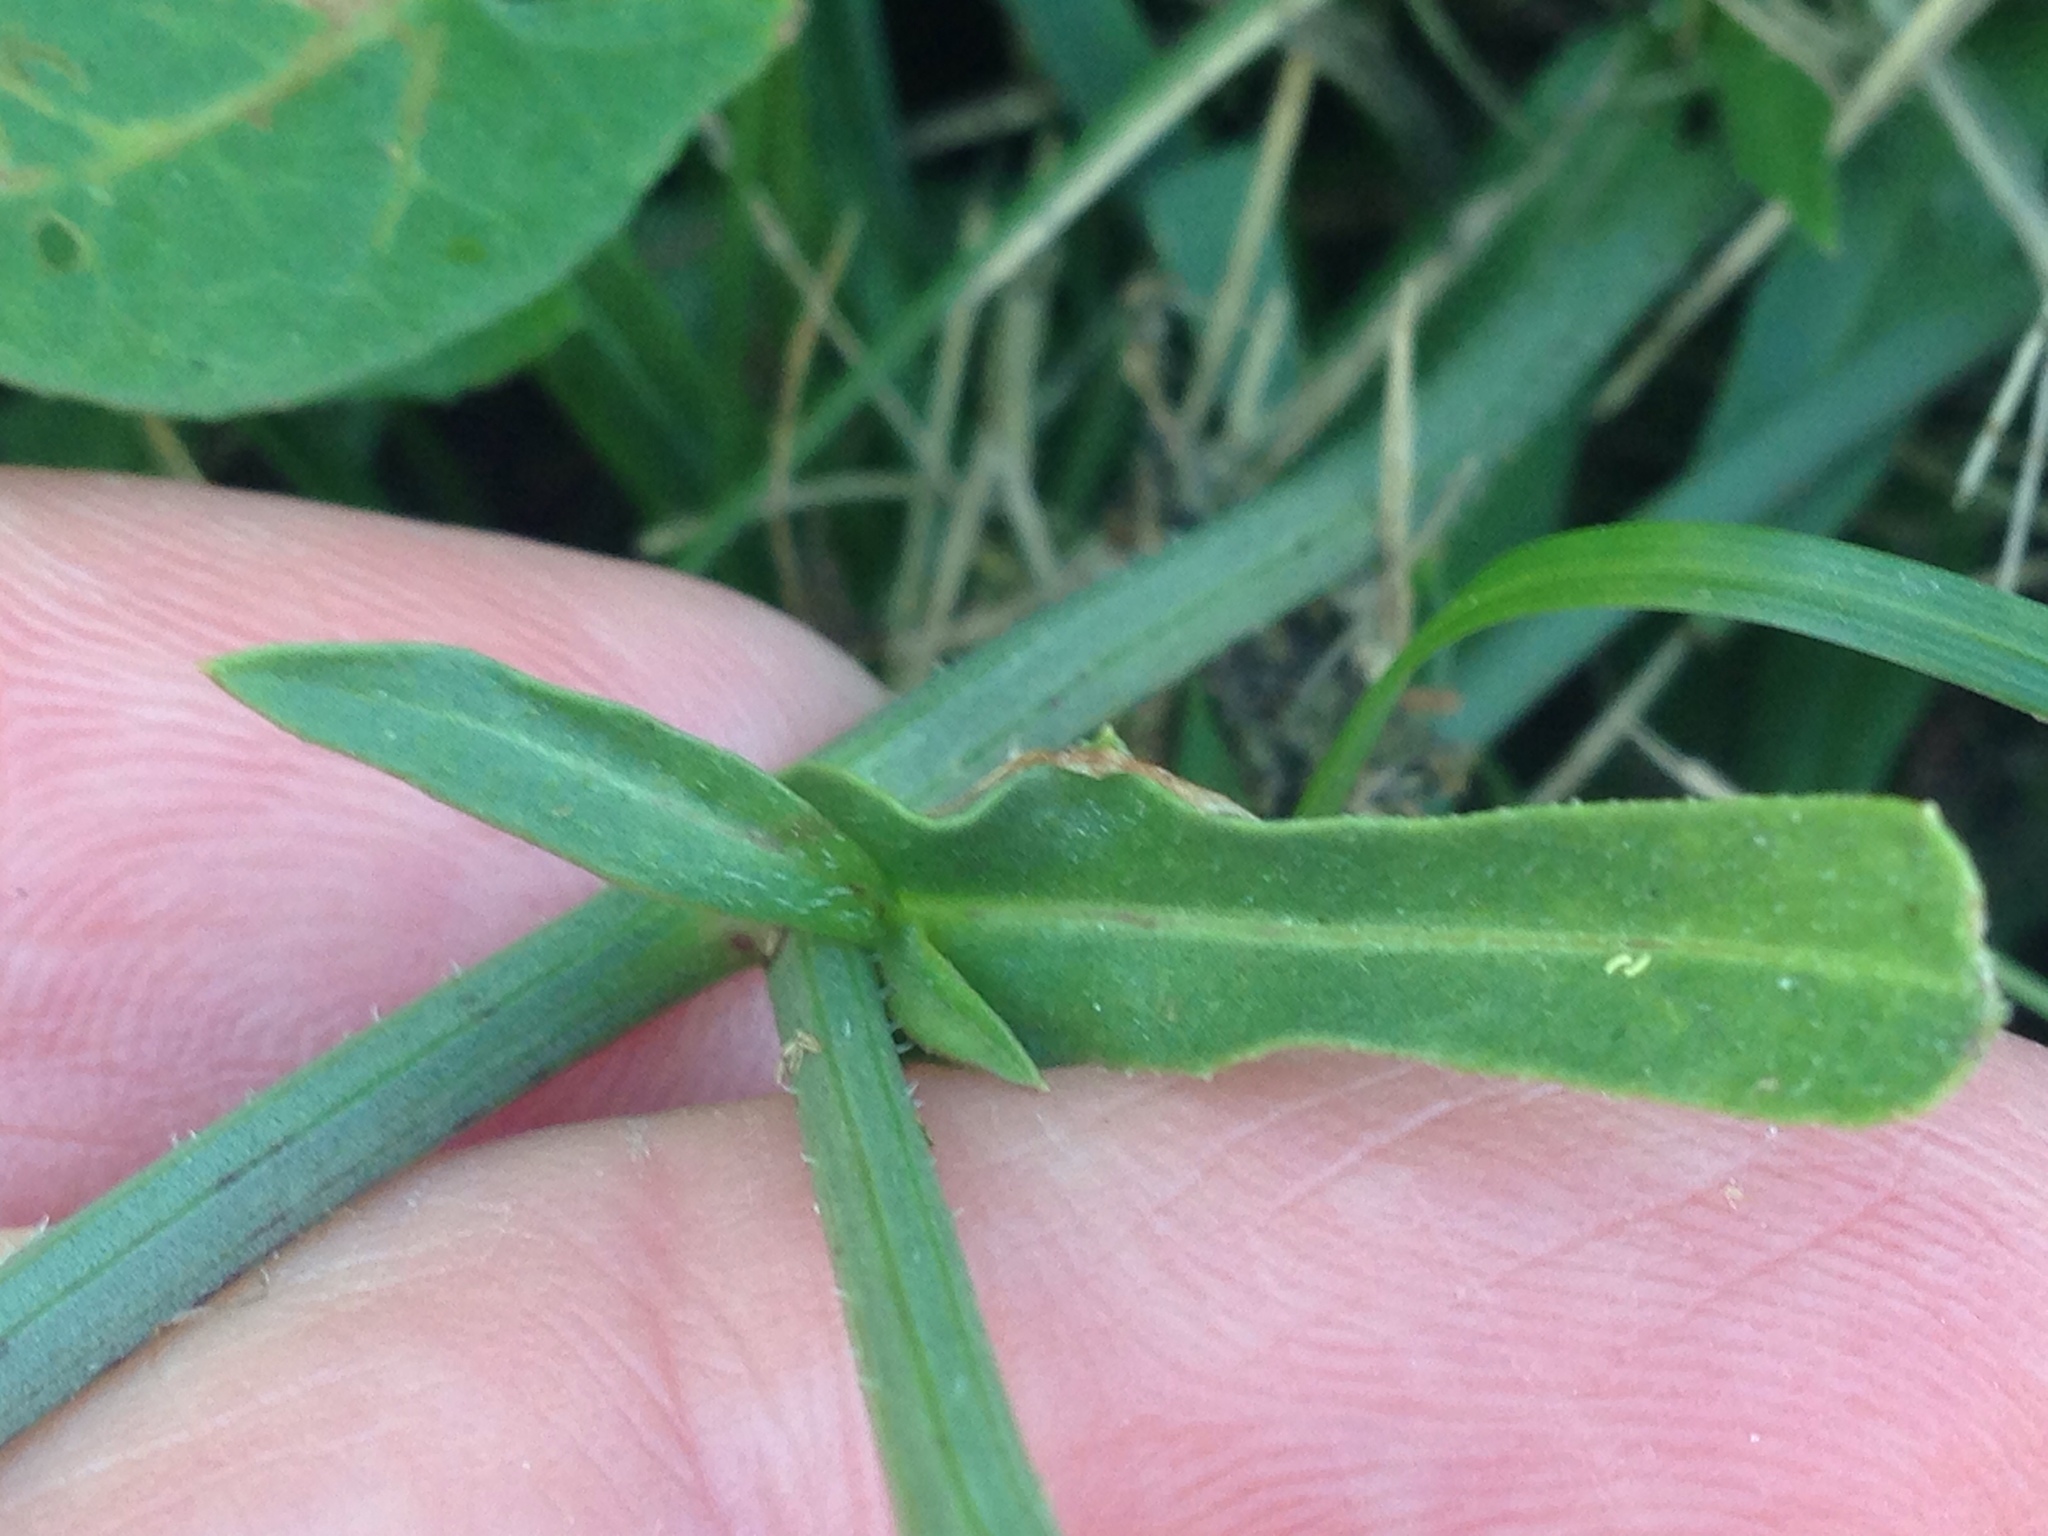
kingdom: Plantae
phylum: Tracheophyta
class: Magnoliopsida
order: Asterales
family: Asteraceae
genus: Cichorium
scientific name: Cichorium intybus
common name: Chicory
